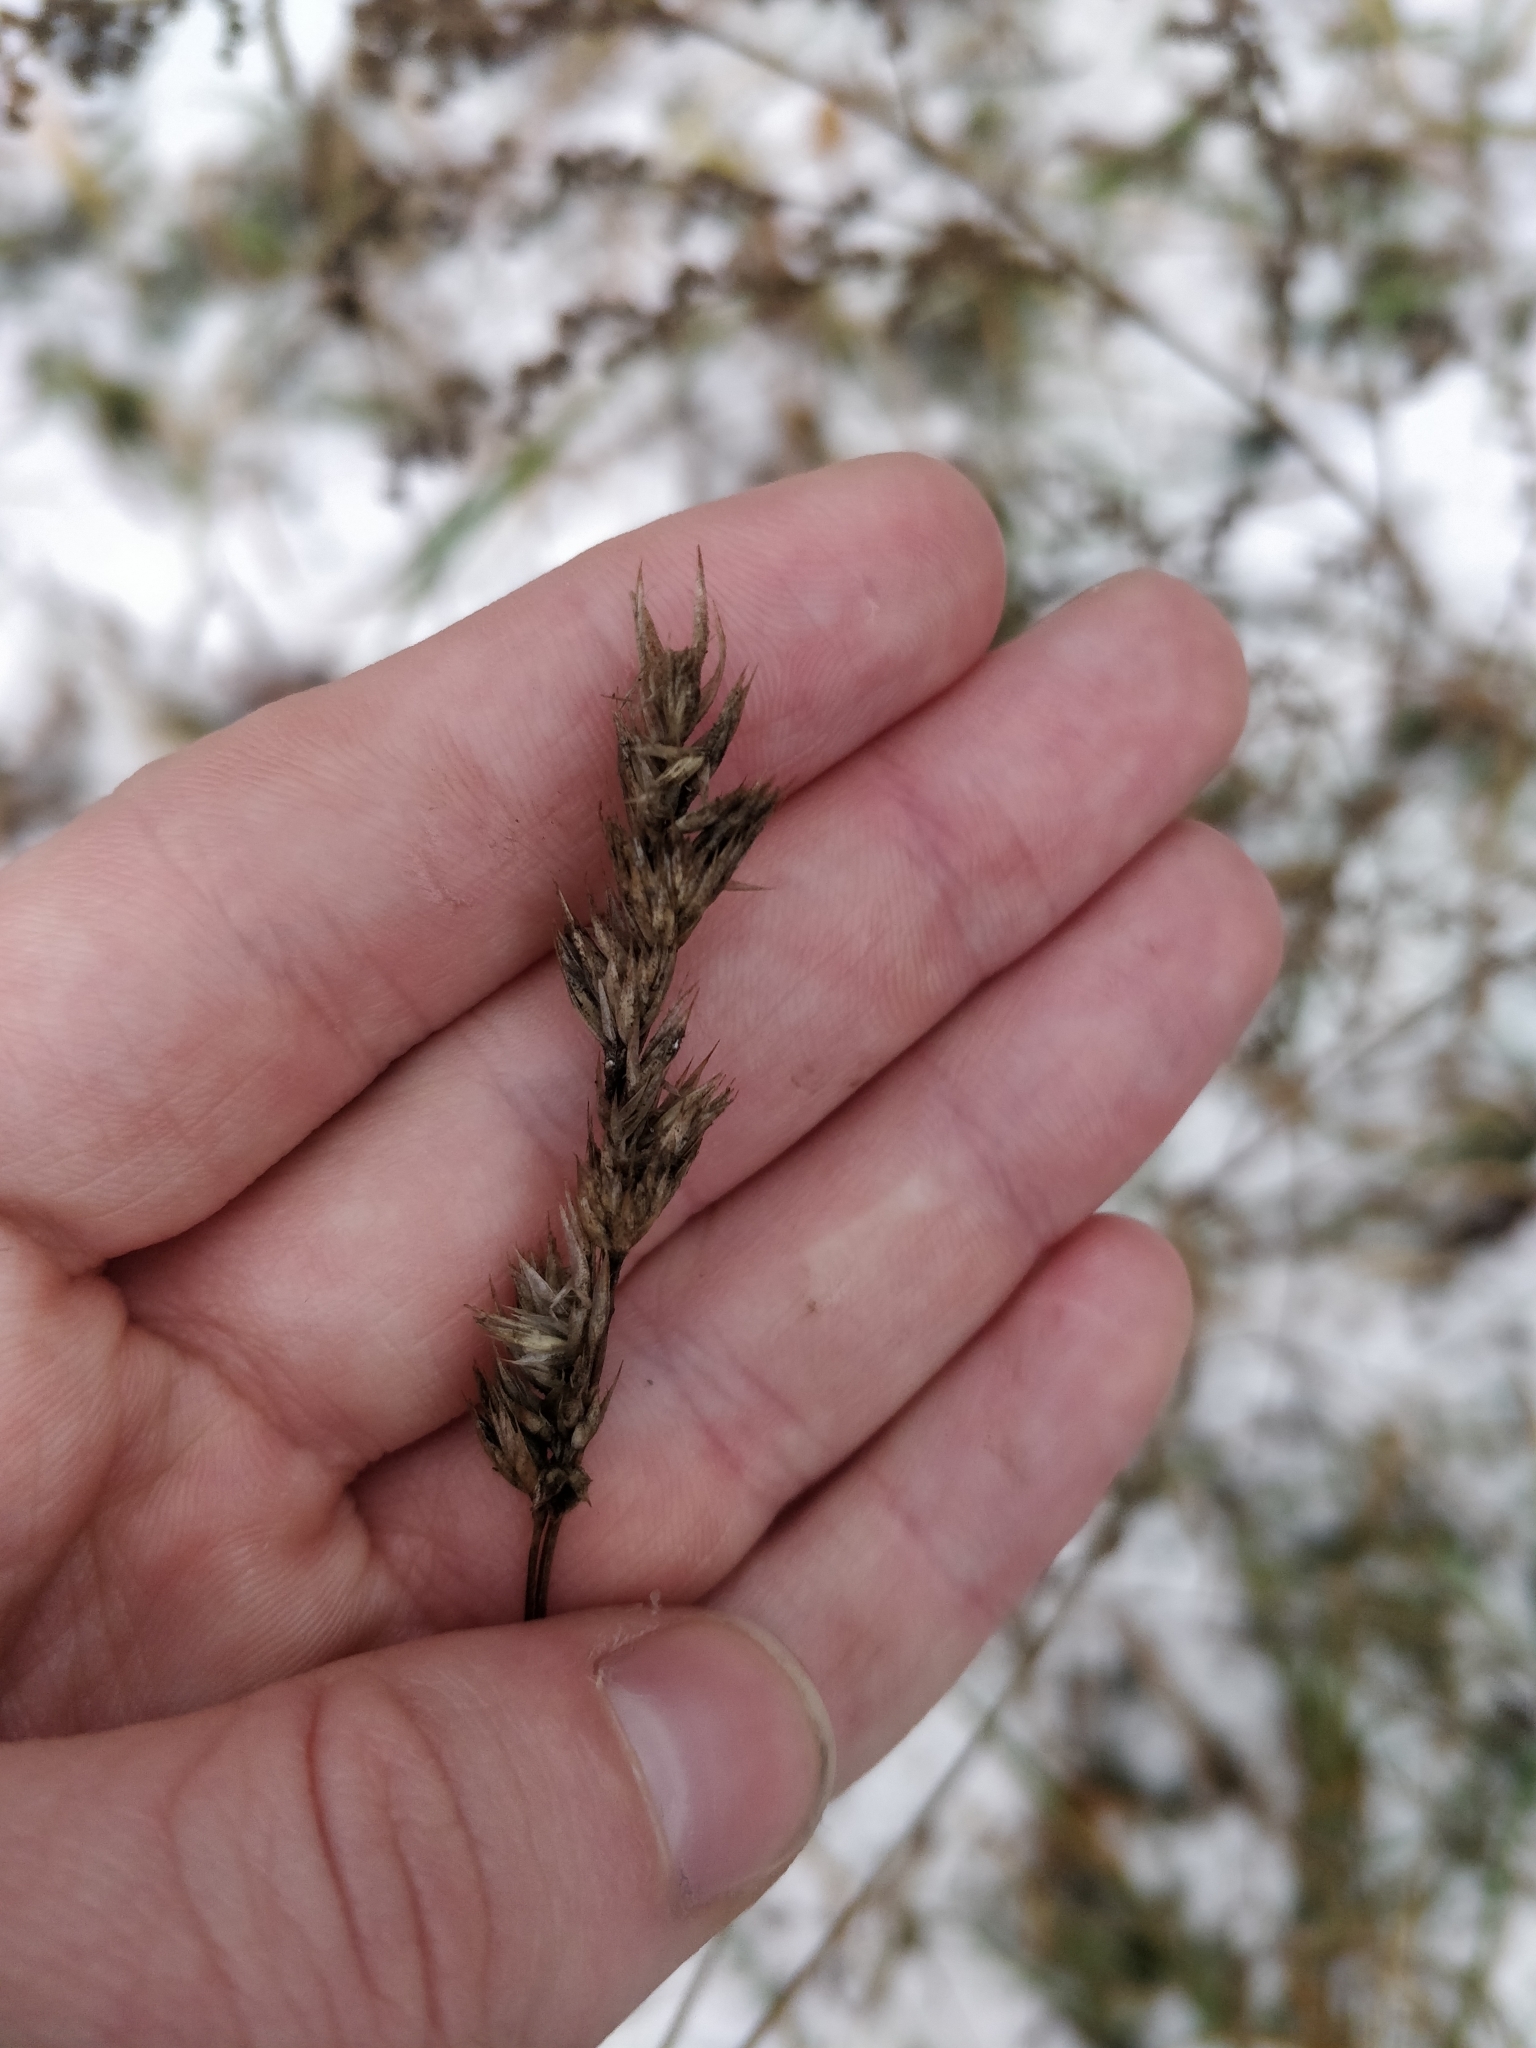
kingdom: Plantae
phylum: Tracheophyta
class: Liliopsida
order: Poales
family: Poaceae
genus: Dactylis
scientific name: Dactylis glomerata
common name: Orchardgrass
